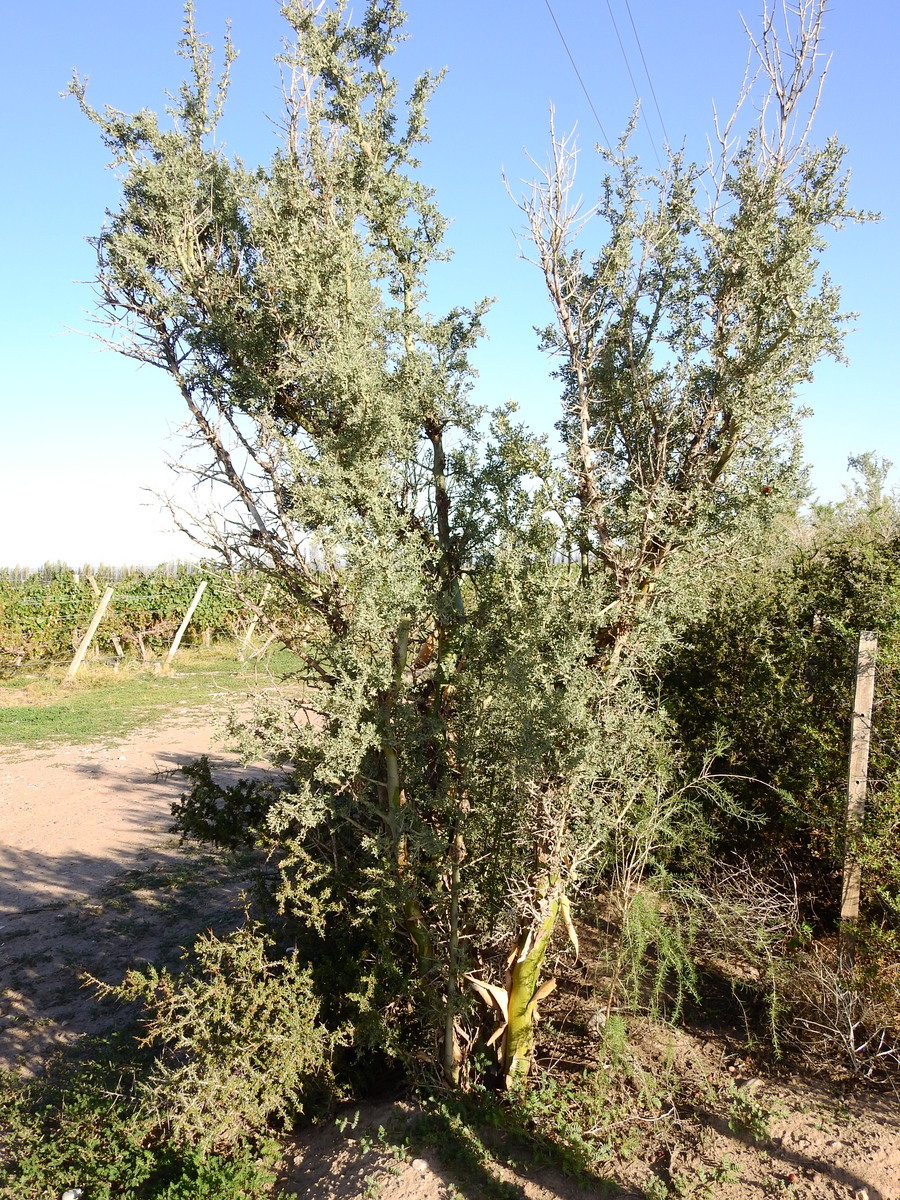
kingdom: Plantae
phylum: Tracheophyta
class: Magnoliopsida
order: Fabales
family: Fabaceae
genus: Geoffroea
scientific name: Geoffroea decorticans
